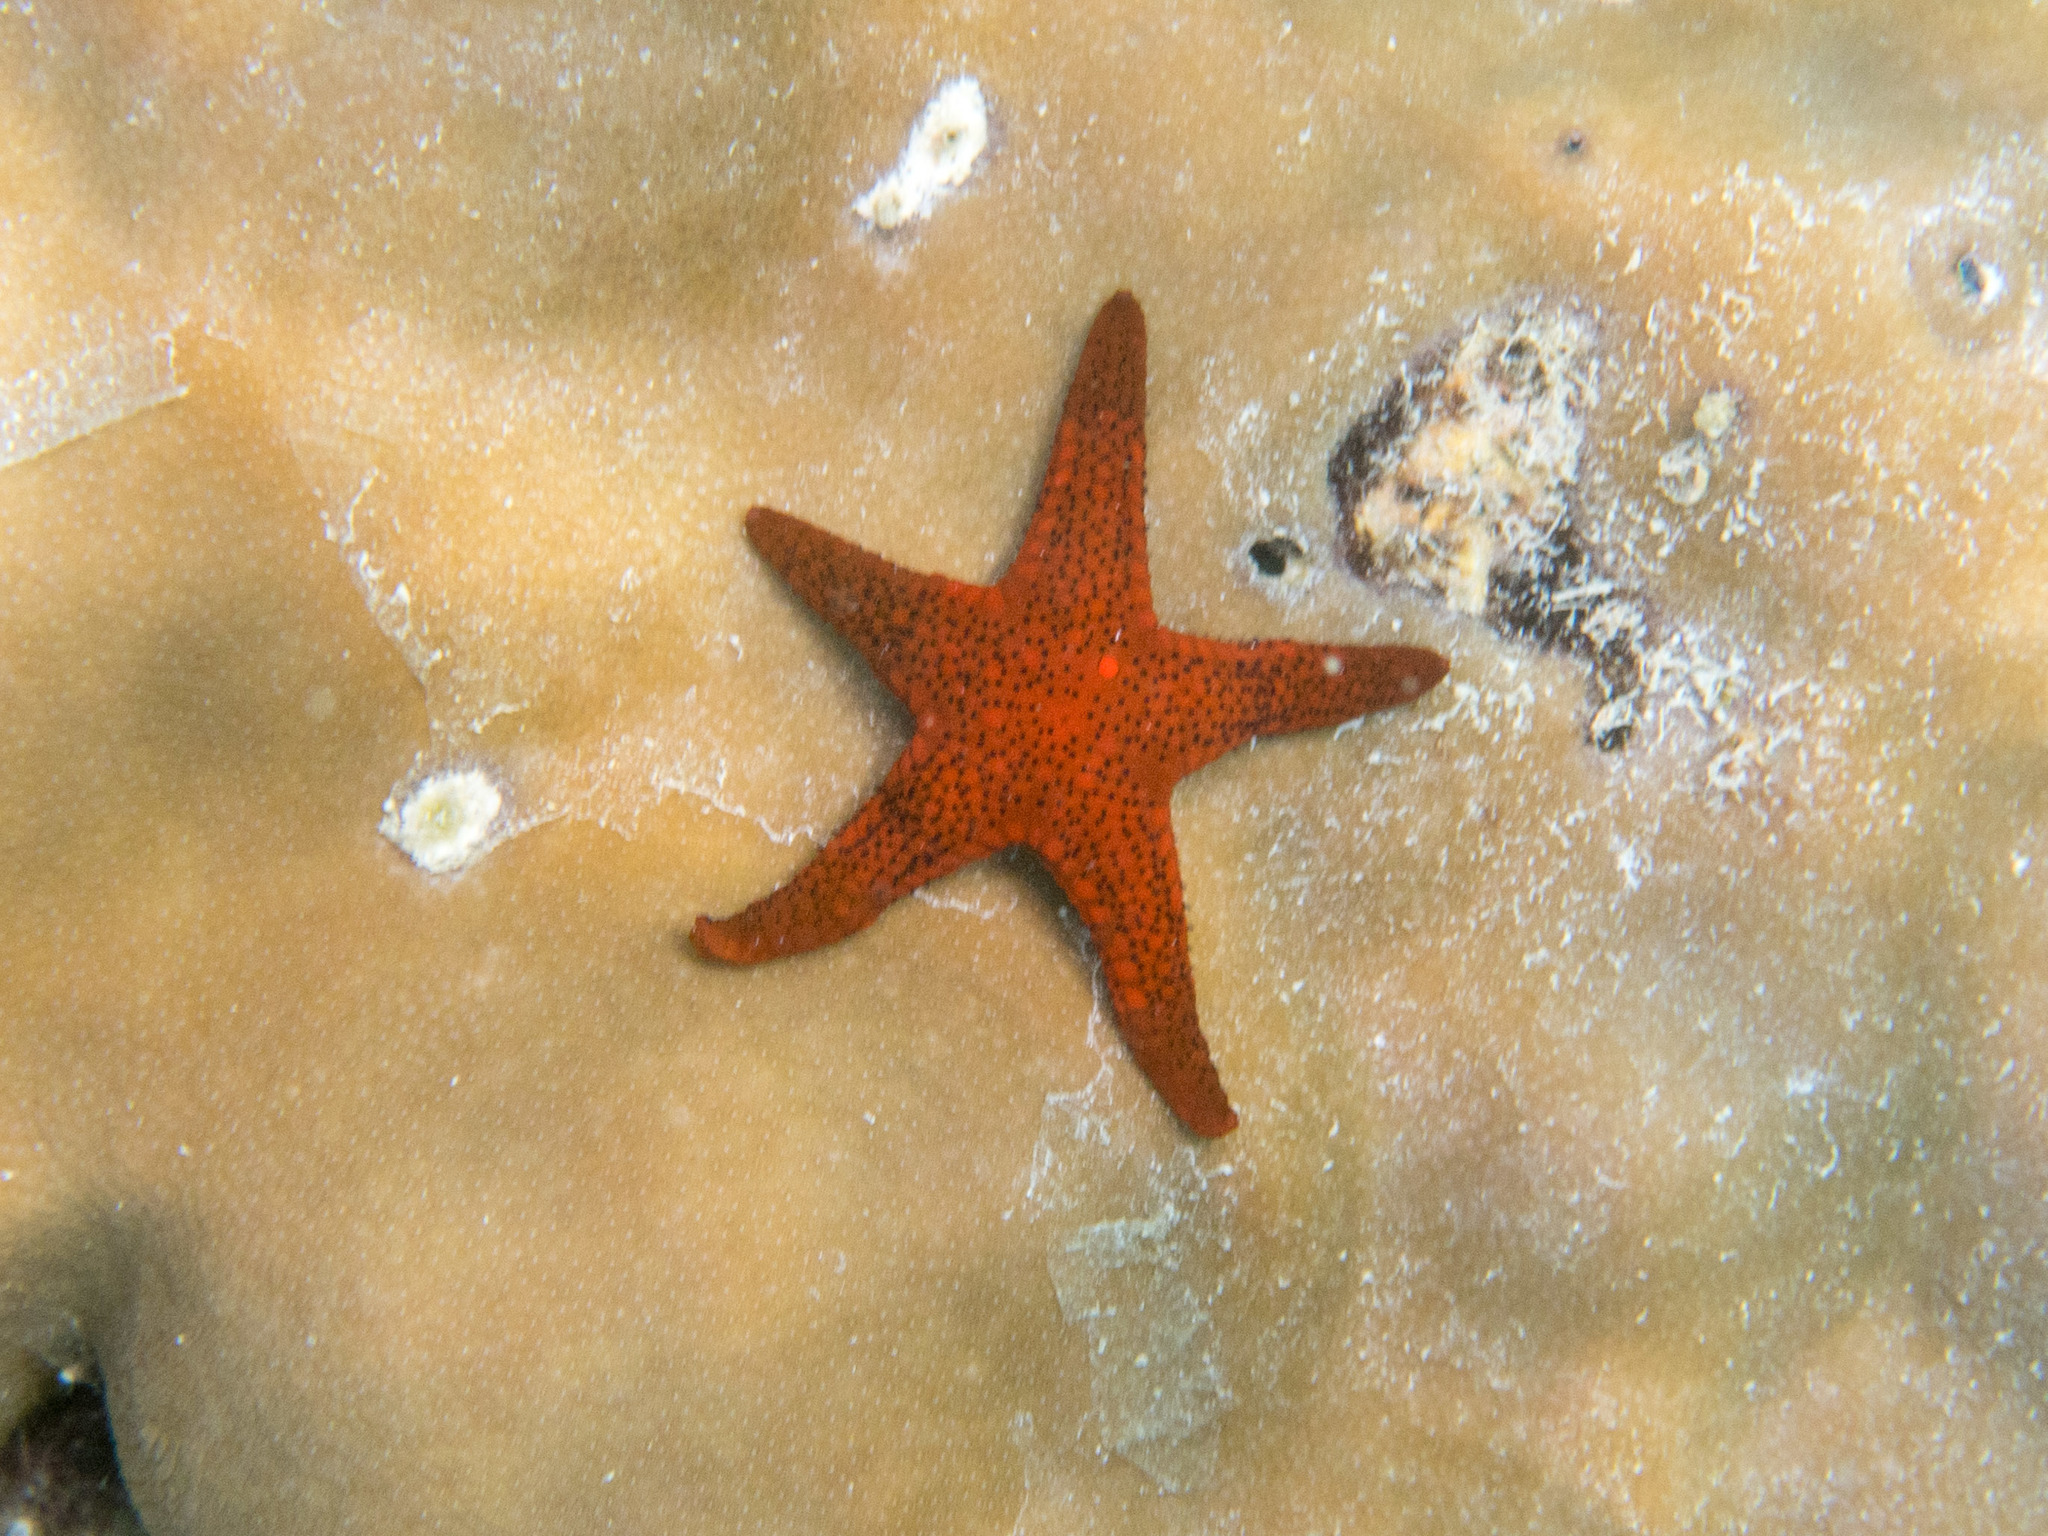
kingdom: Animalia
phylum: Echinodermata
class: Asteroidea
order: Valvatida
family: Goniasteridae
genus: Fromia
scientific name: Fromia milleporella
